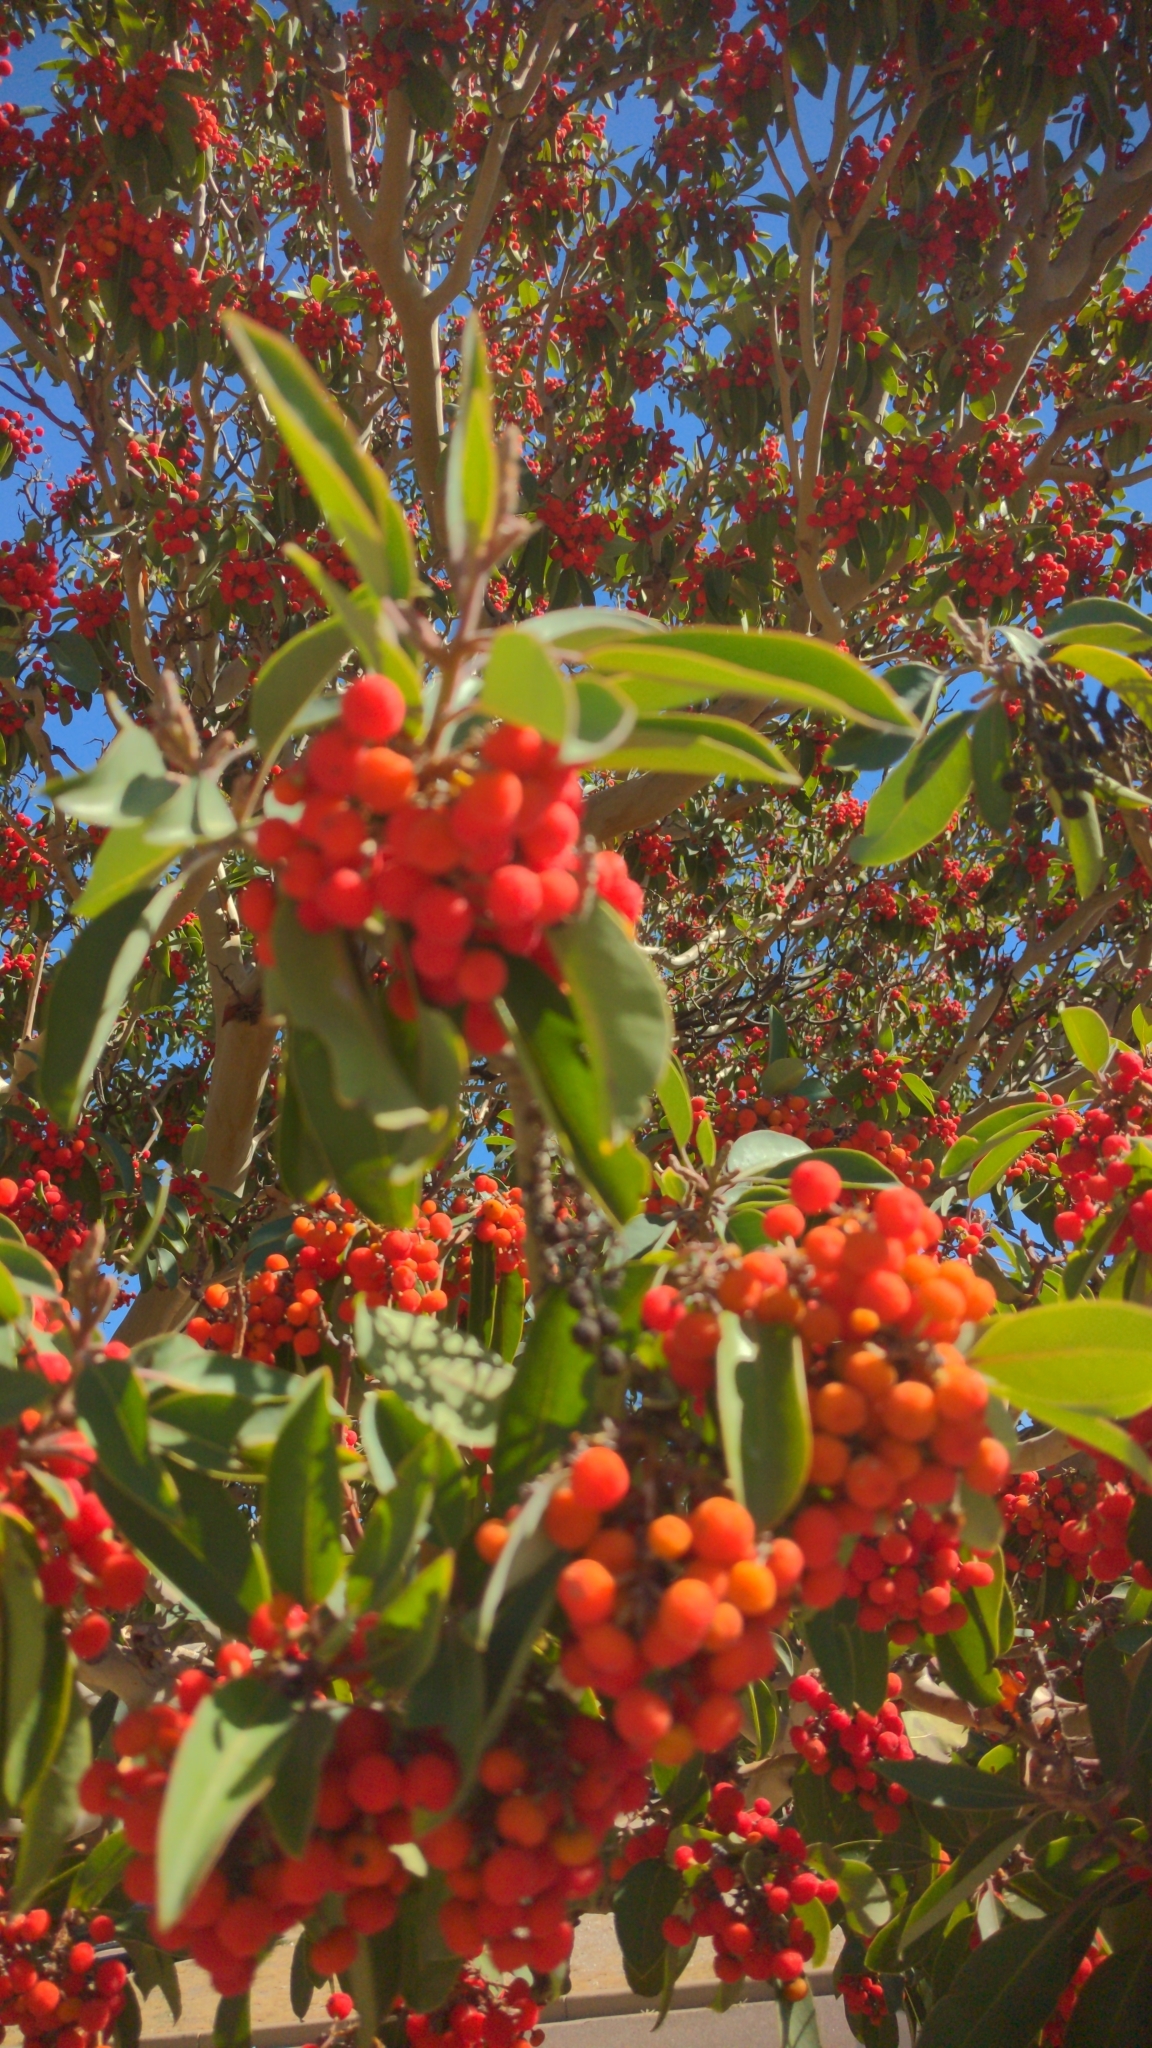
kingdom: Plantae
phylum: Tracheophyta
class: Magnoliopsida
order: Ericales
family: Ericaceae
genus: Arbutus
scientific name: Arbutus xalapensis
